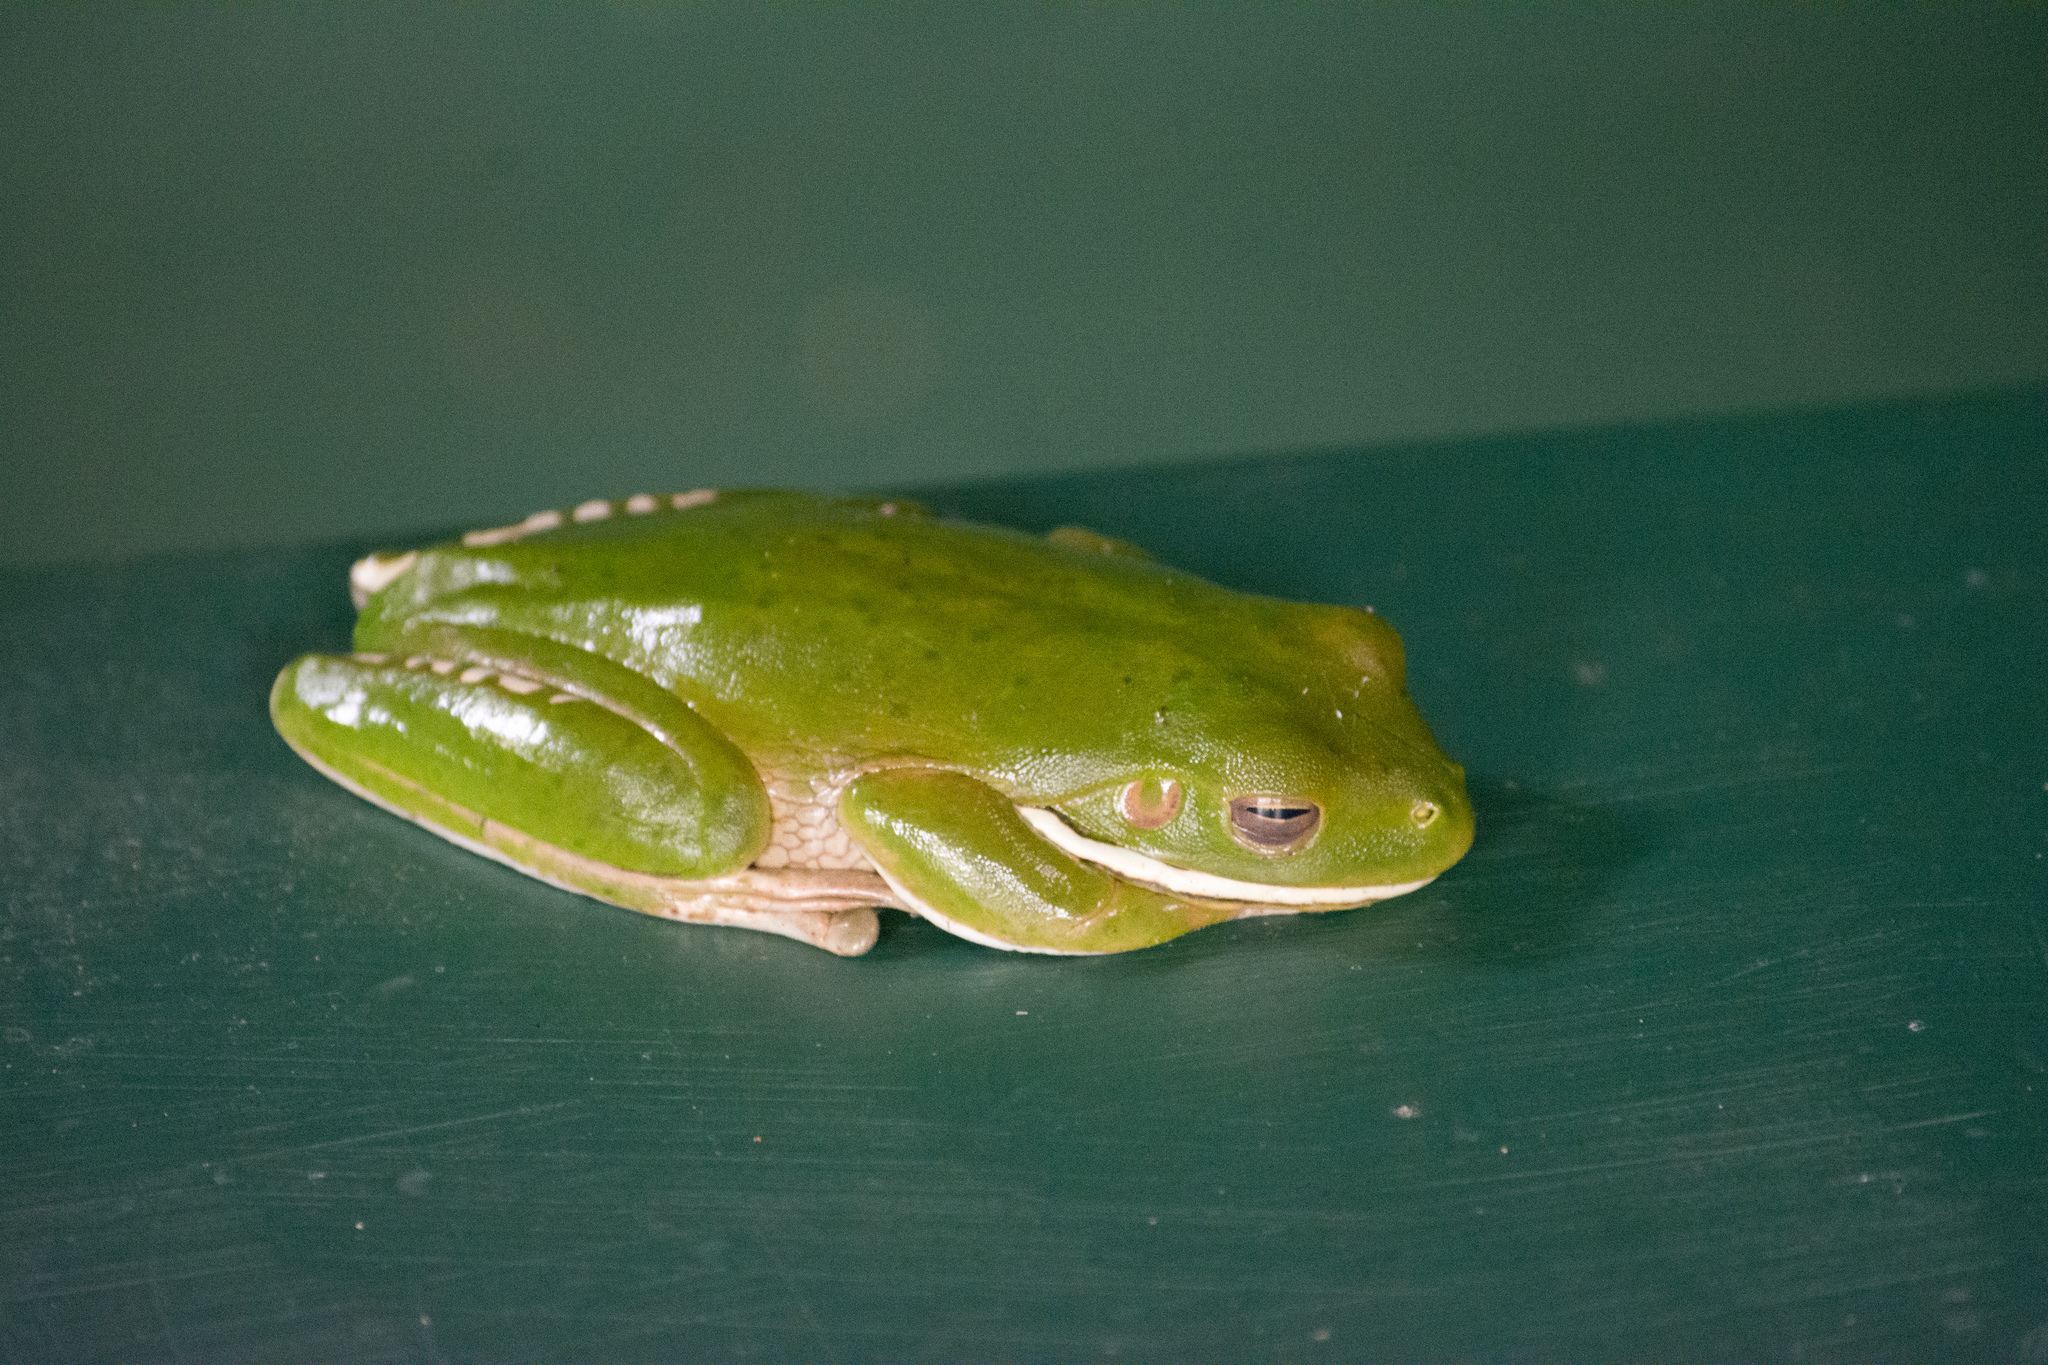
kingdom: Animalia
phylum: Chordata
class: Amphibia
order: Anura
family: Pelodryadidae
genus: Nyctimystes
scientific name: Nyctimystes infrafrenatus
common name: Australian giant treefrog
